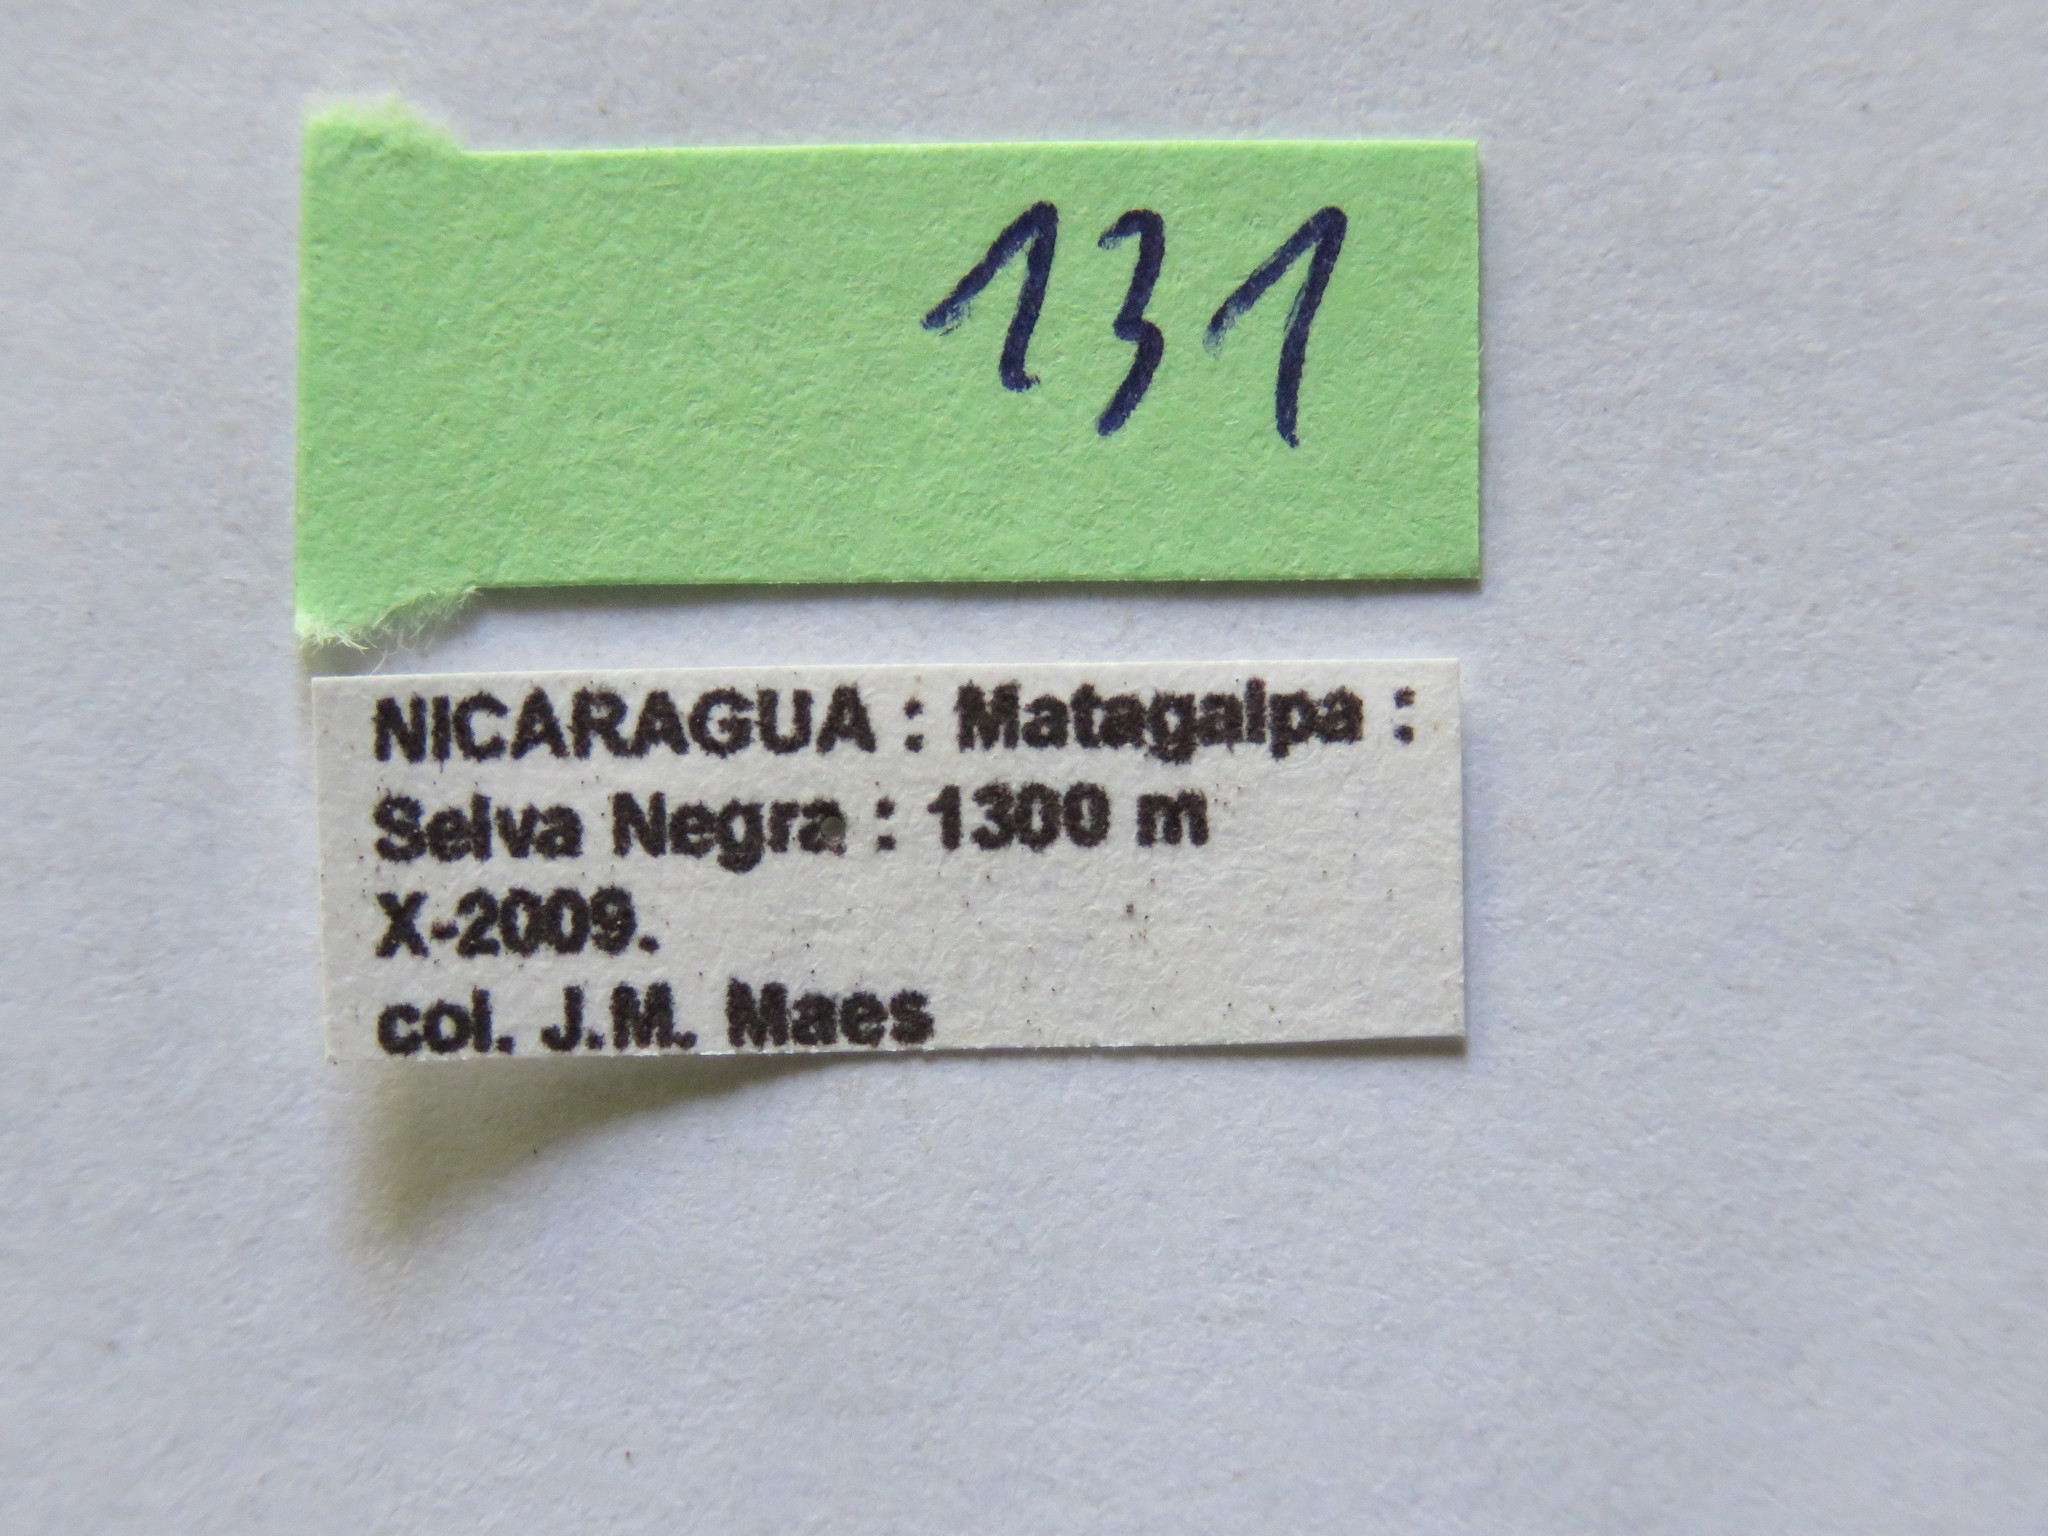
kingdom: Animalia
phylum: Arthropoda
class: Insecta
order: Hemiptera
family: Coreidae
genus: Piezogaster
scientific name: Piezogaster chiriquinus
